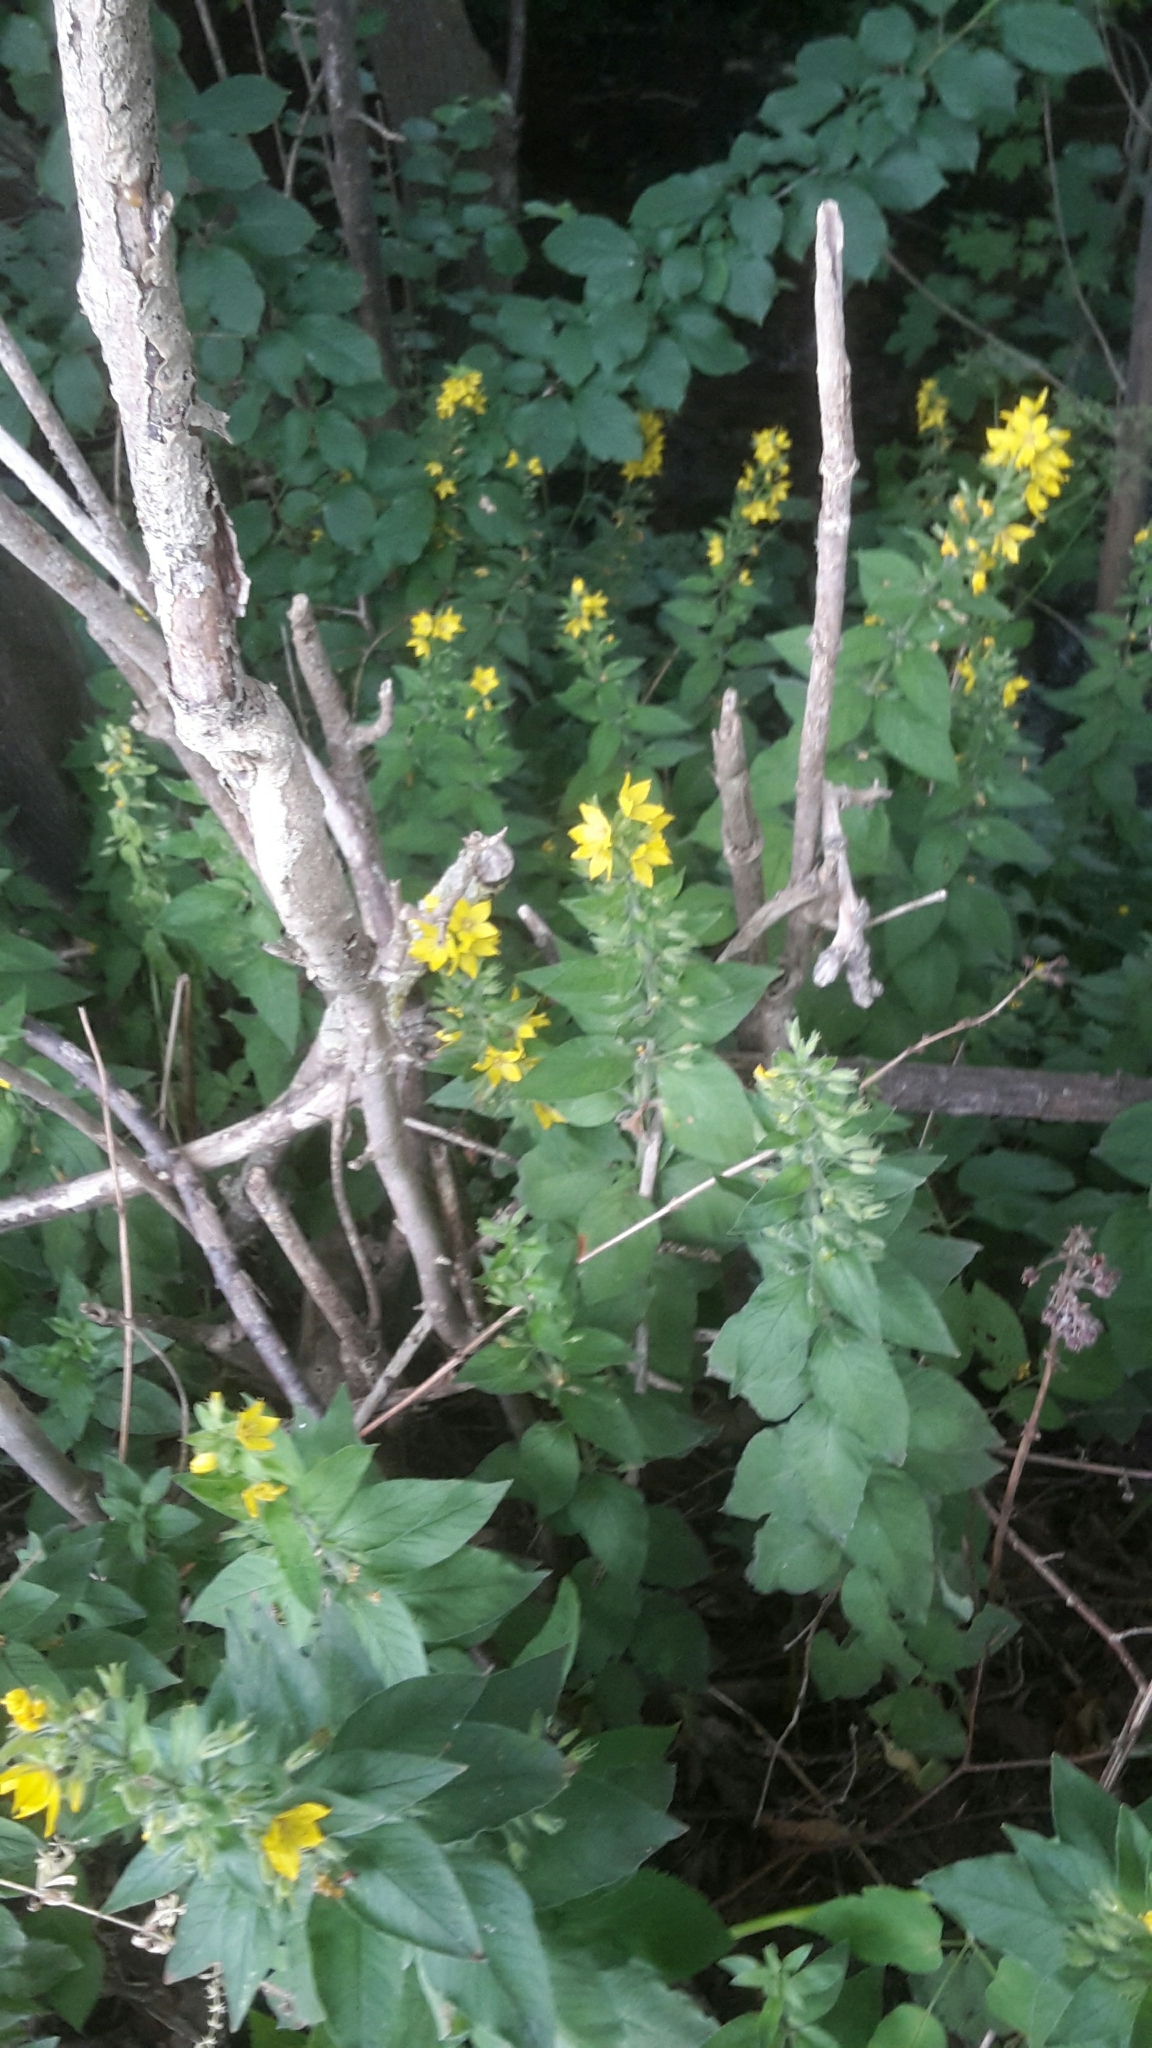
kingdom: Plantae
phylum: Tracheophyta
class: Magnoliopsida
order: Ericales
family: Primulaceae
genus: Lysimachia
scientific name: Lysimachia punctata
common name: Dotted loosestrife
